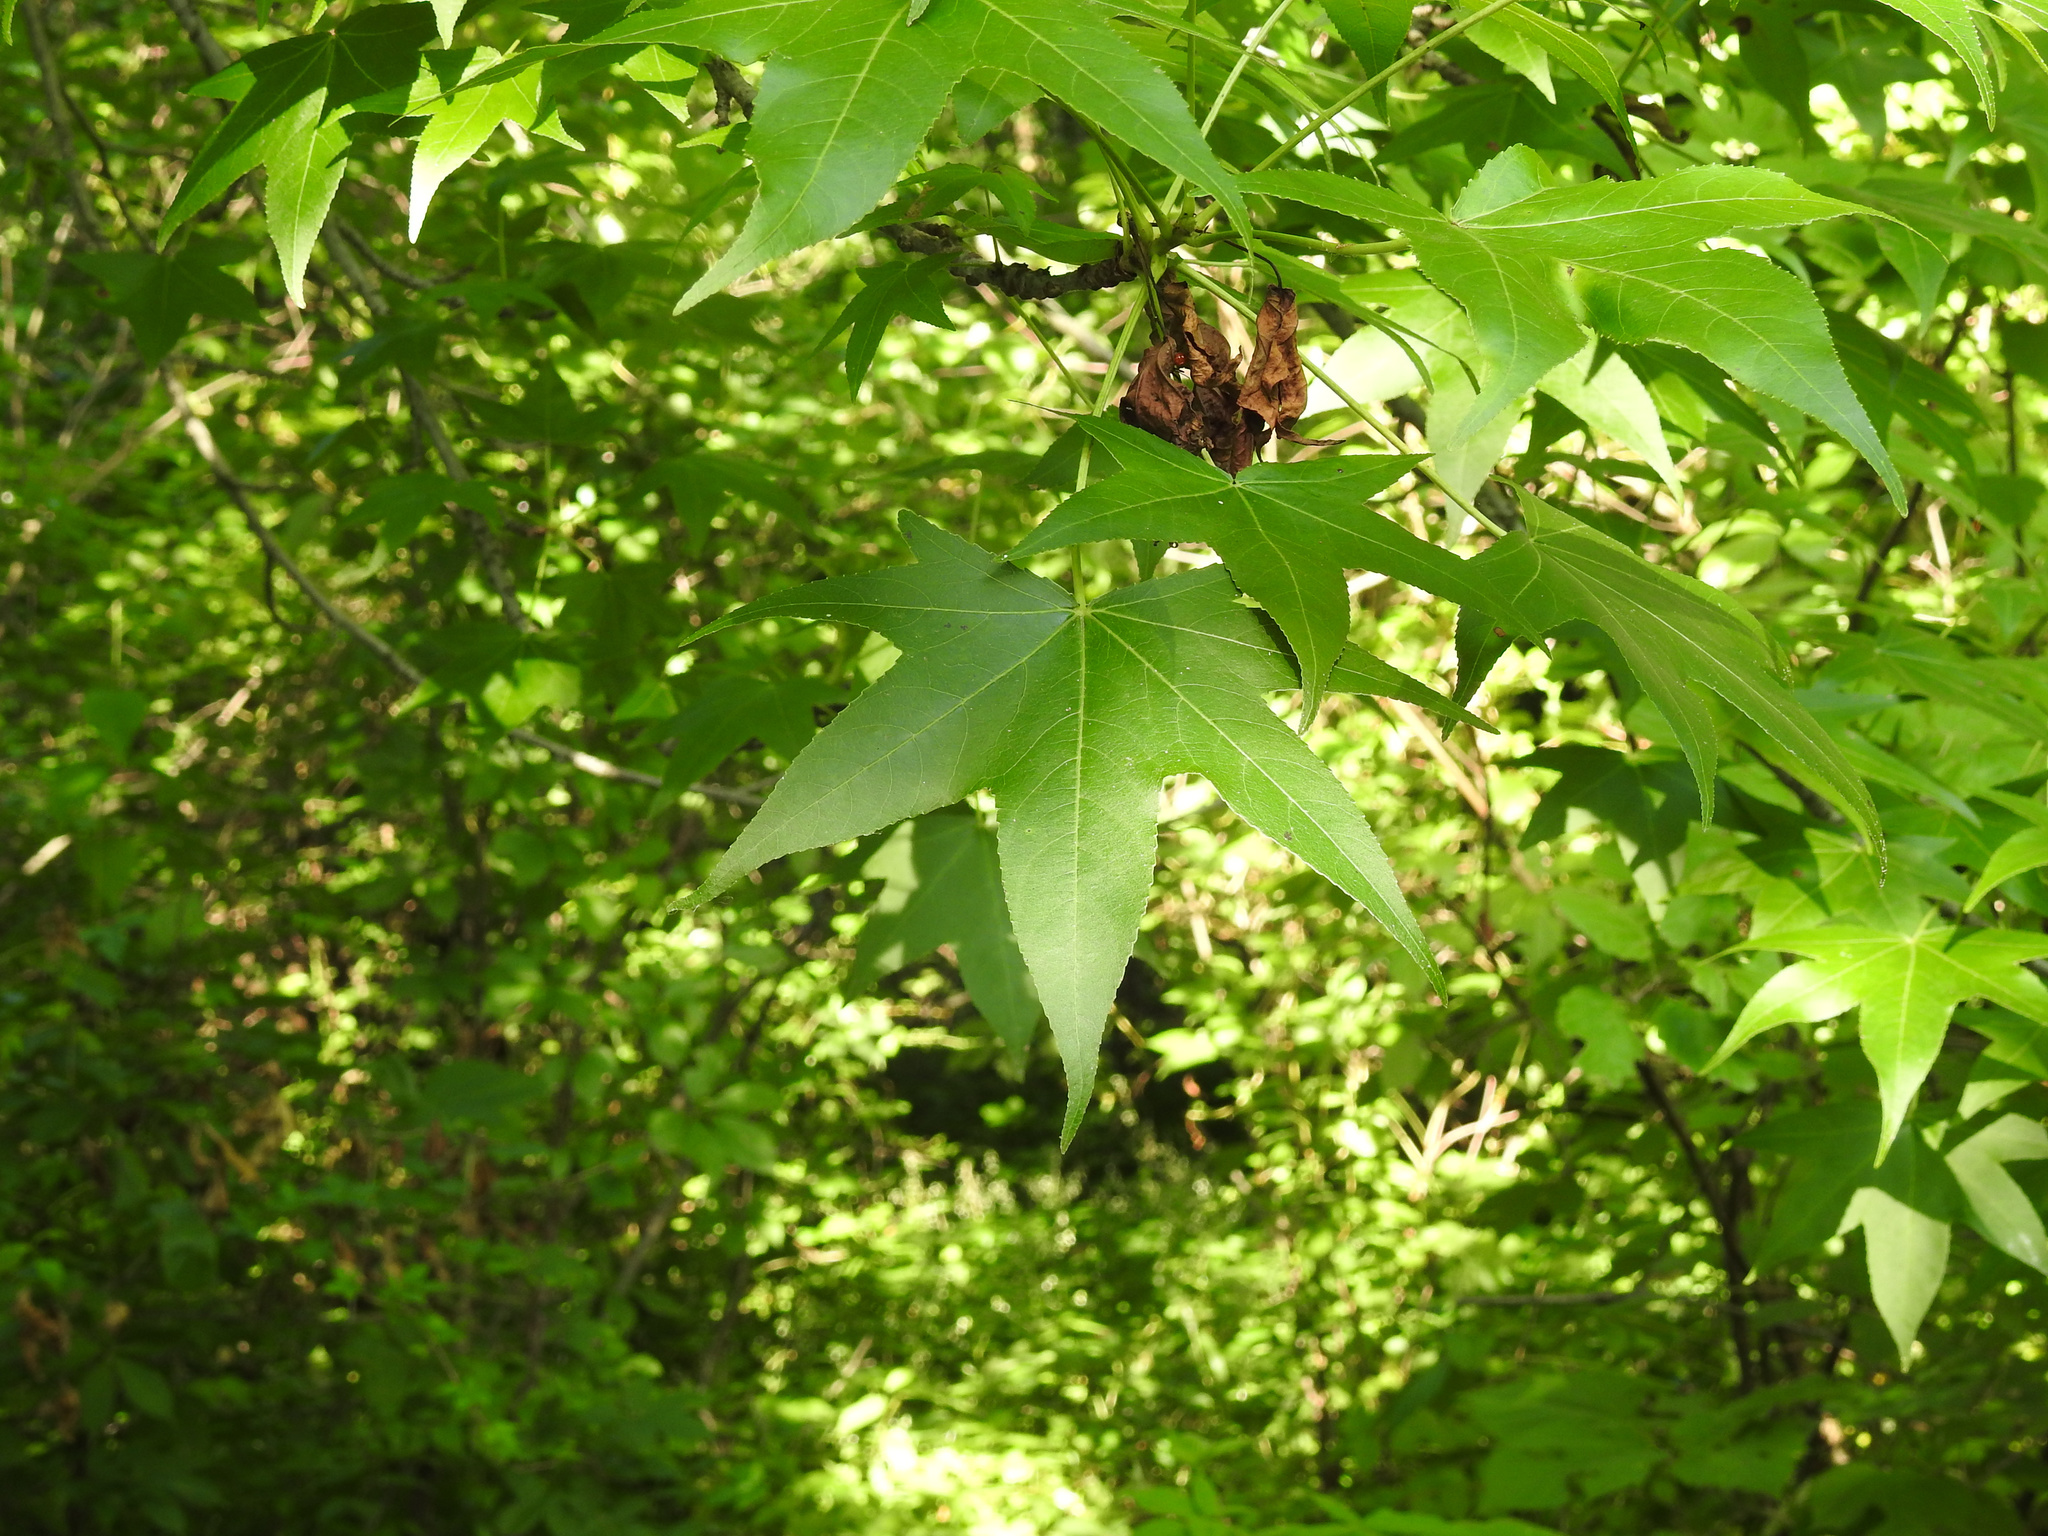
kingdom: Plantae
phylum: Tracheophyta
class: Magnoliopsida
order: Saxifragales
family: Altingiaceae
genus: Liquidambar
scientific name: Liquidambar styraciflua
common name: Sweet gum
